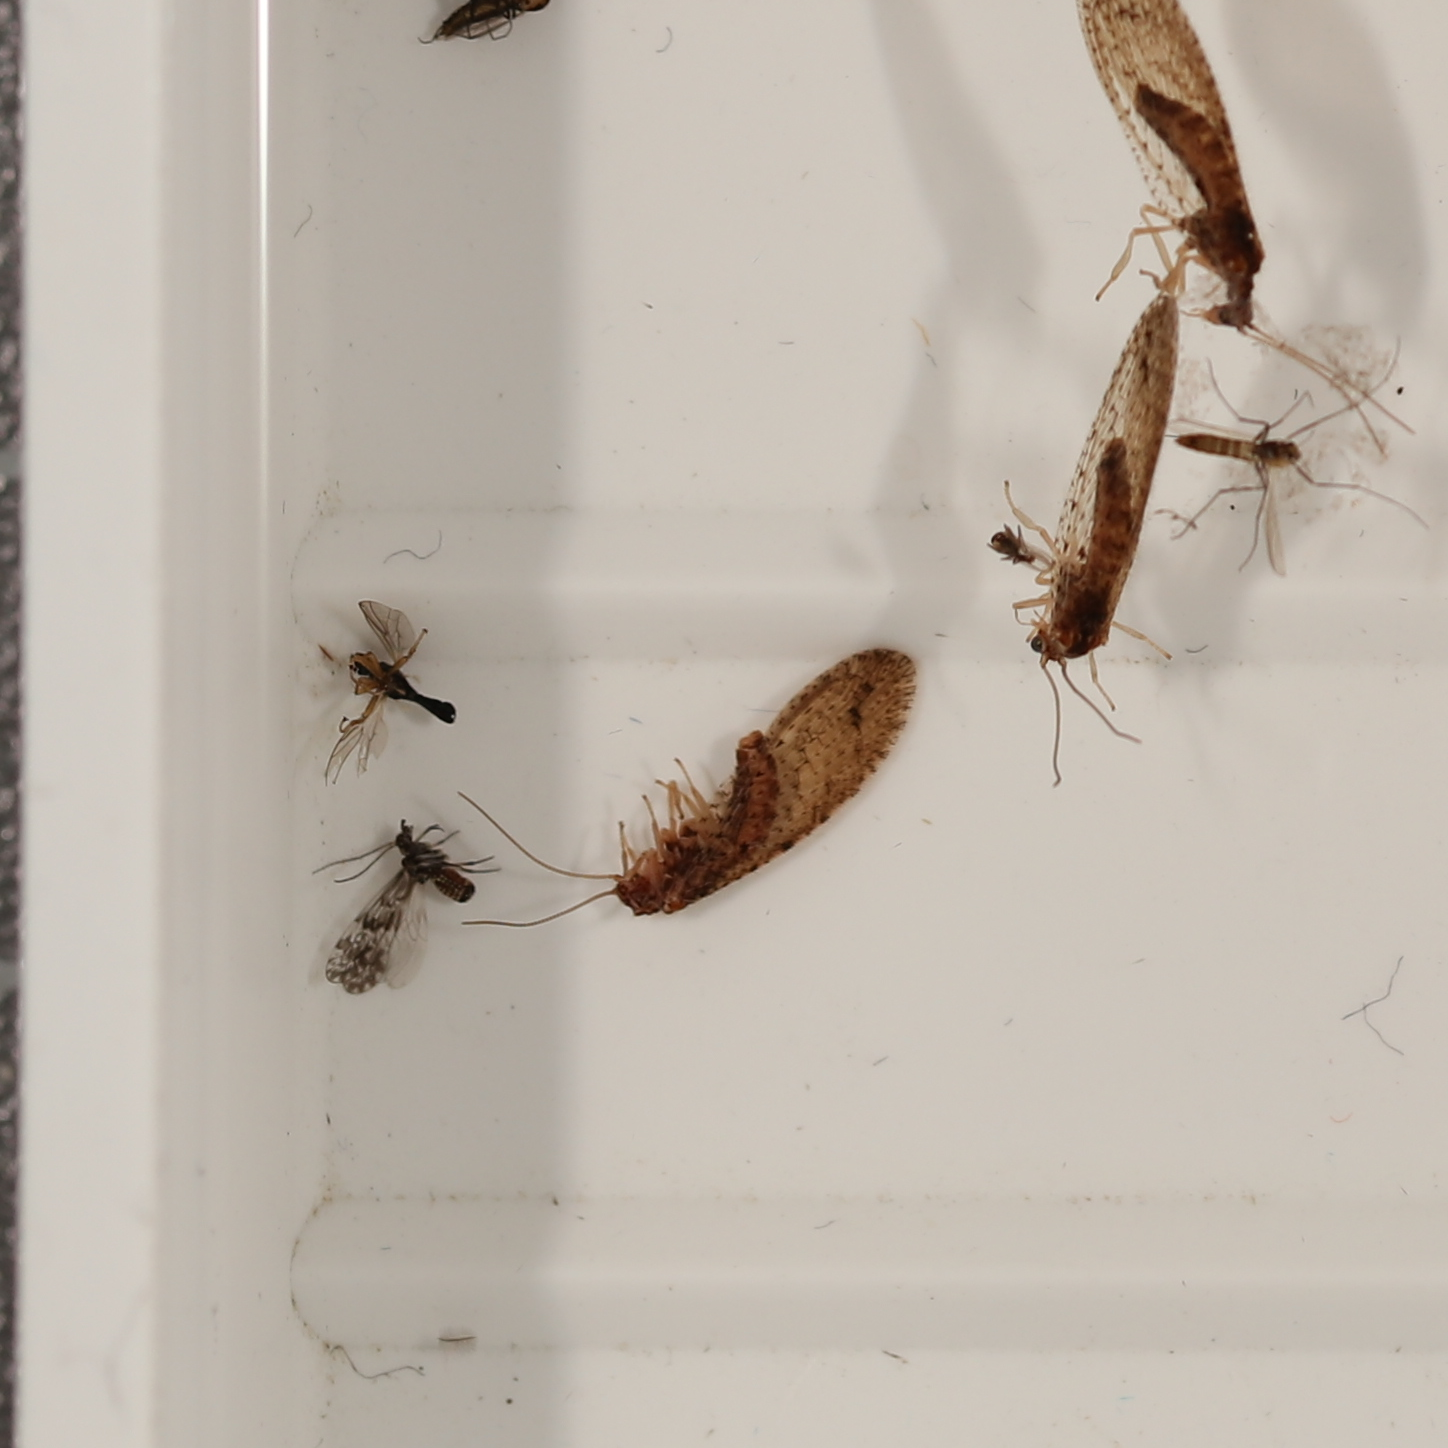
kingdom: Animalia
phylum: Arthropoda
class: Insecta
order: Neuroptera
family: Hemerobiidae
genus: Micromus
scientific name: Micromus tasmaniae
